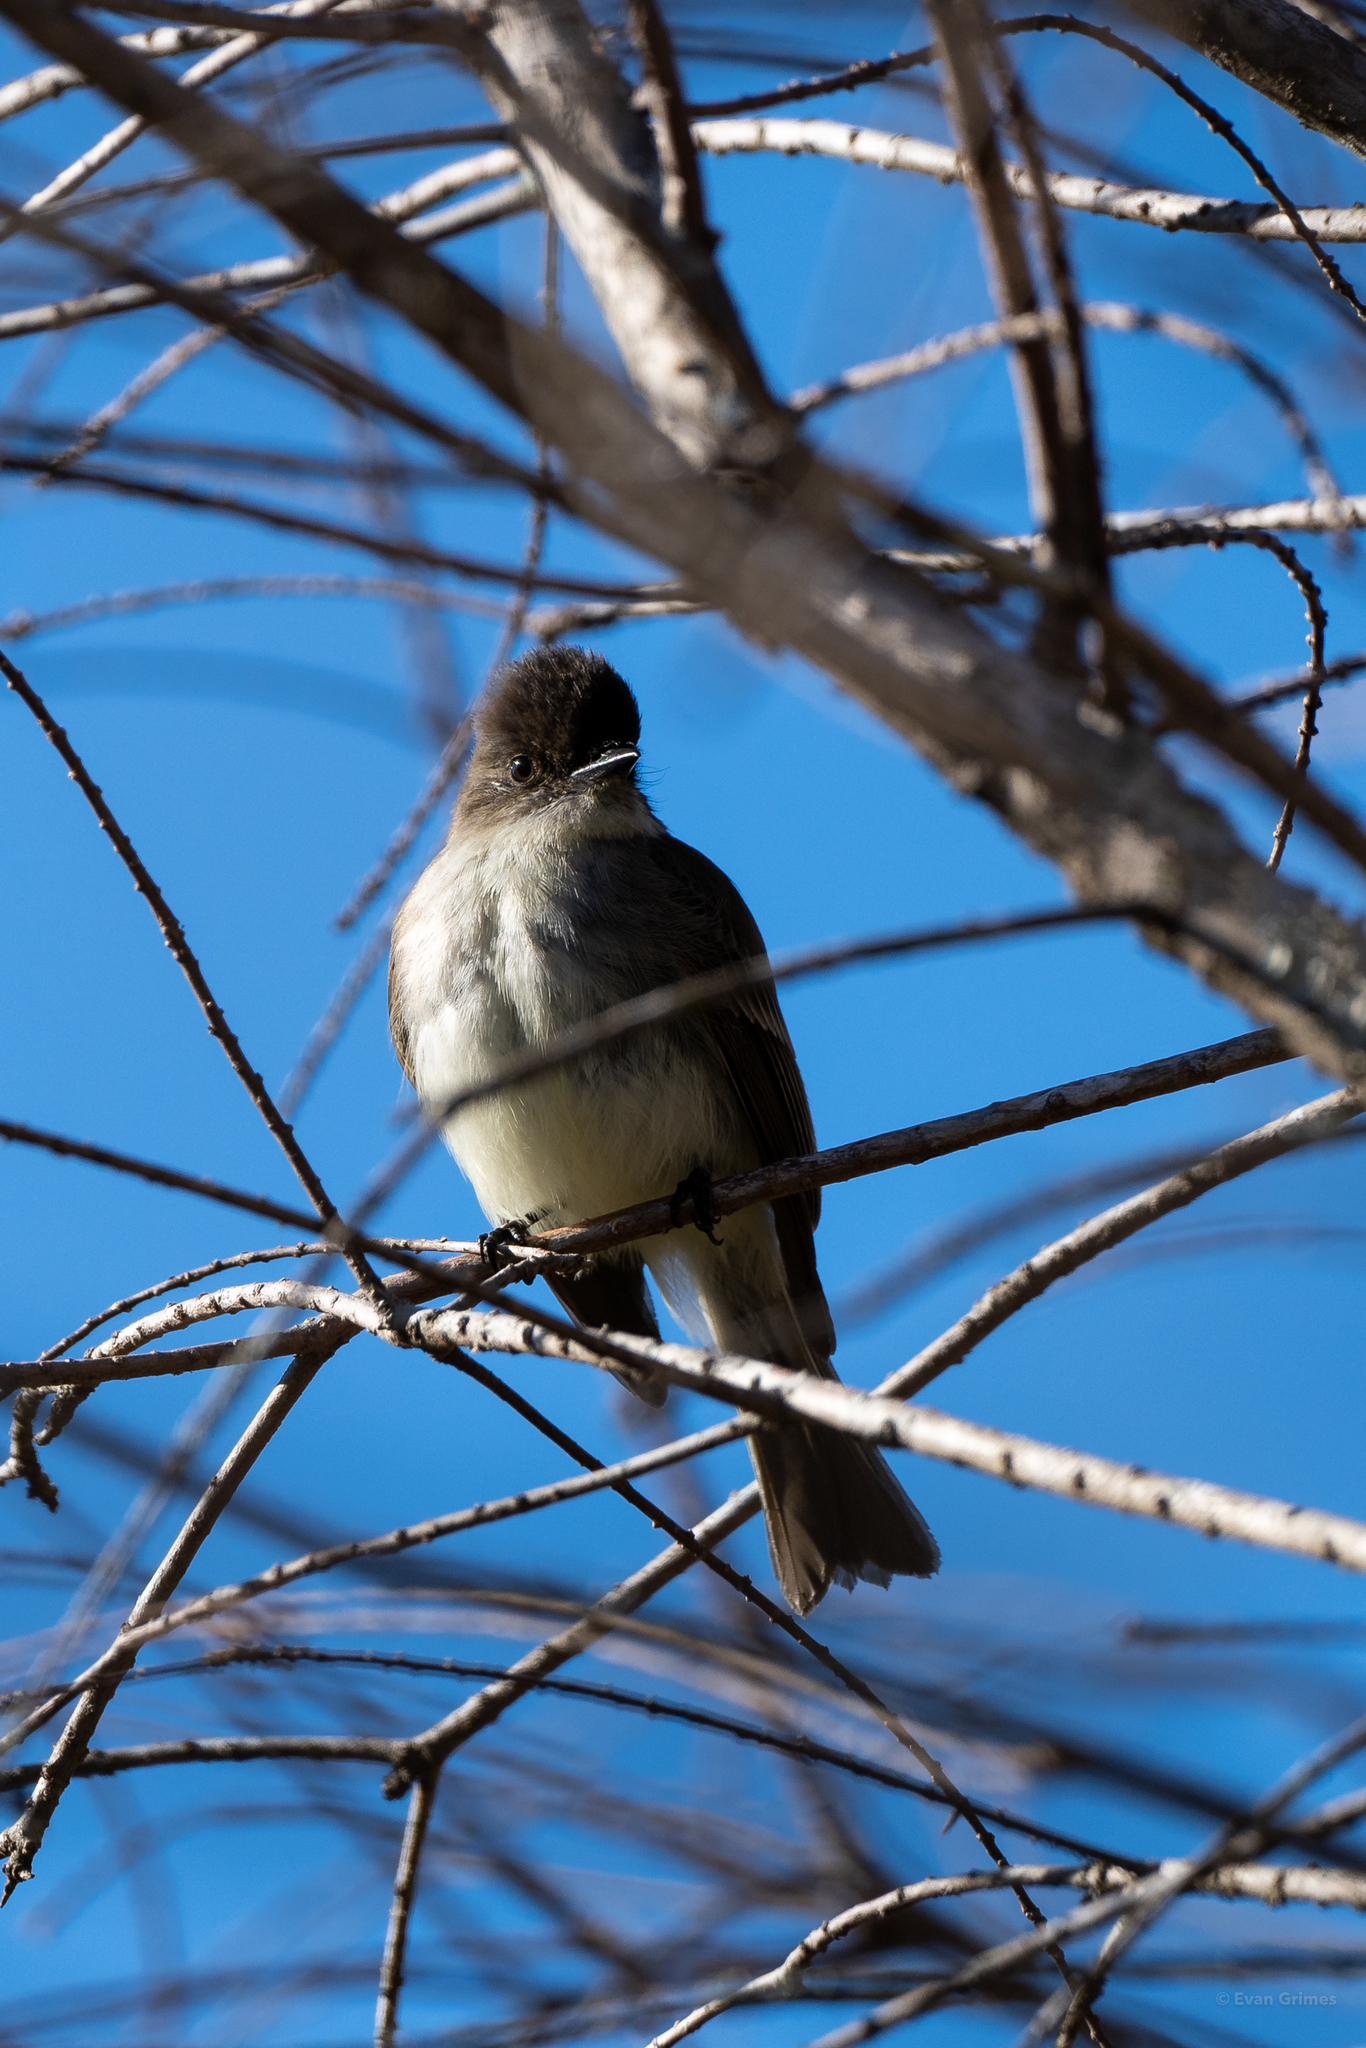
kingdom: Animalia
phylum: Chordata
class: Aves
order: Passeriformes
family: Tyrannidae
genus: Sayornis
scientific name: Sayornis phoebe
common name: Eastern phoebe
